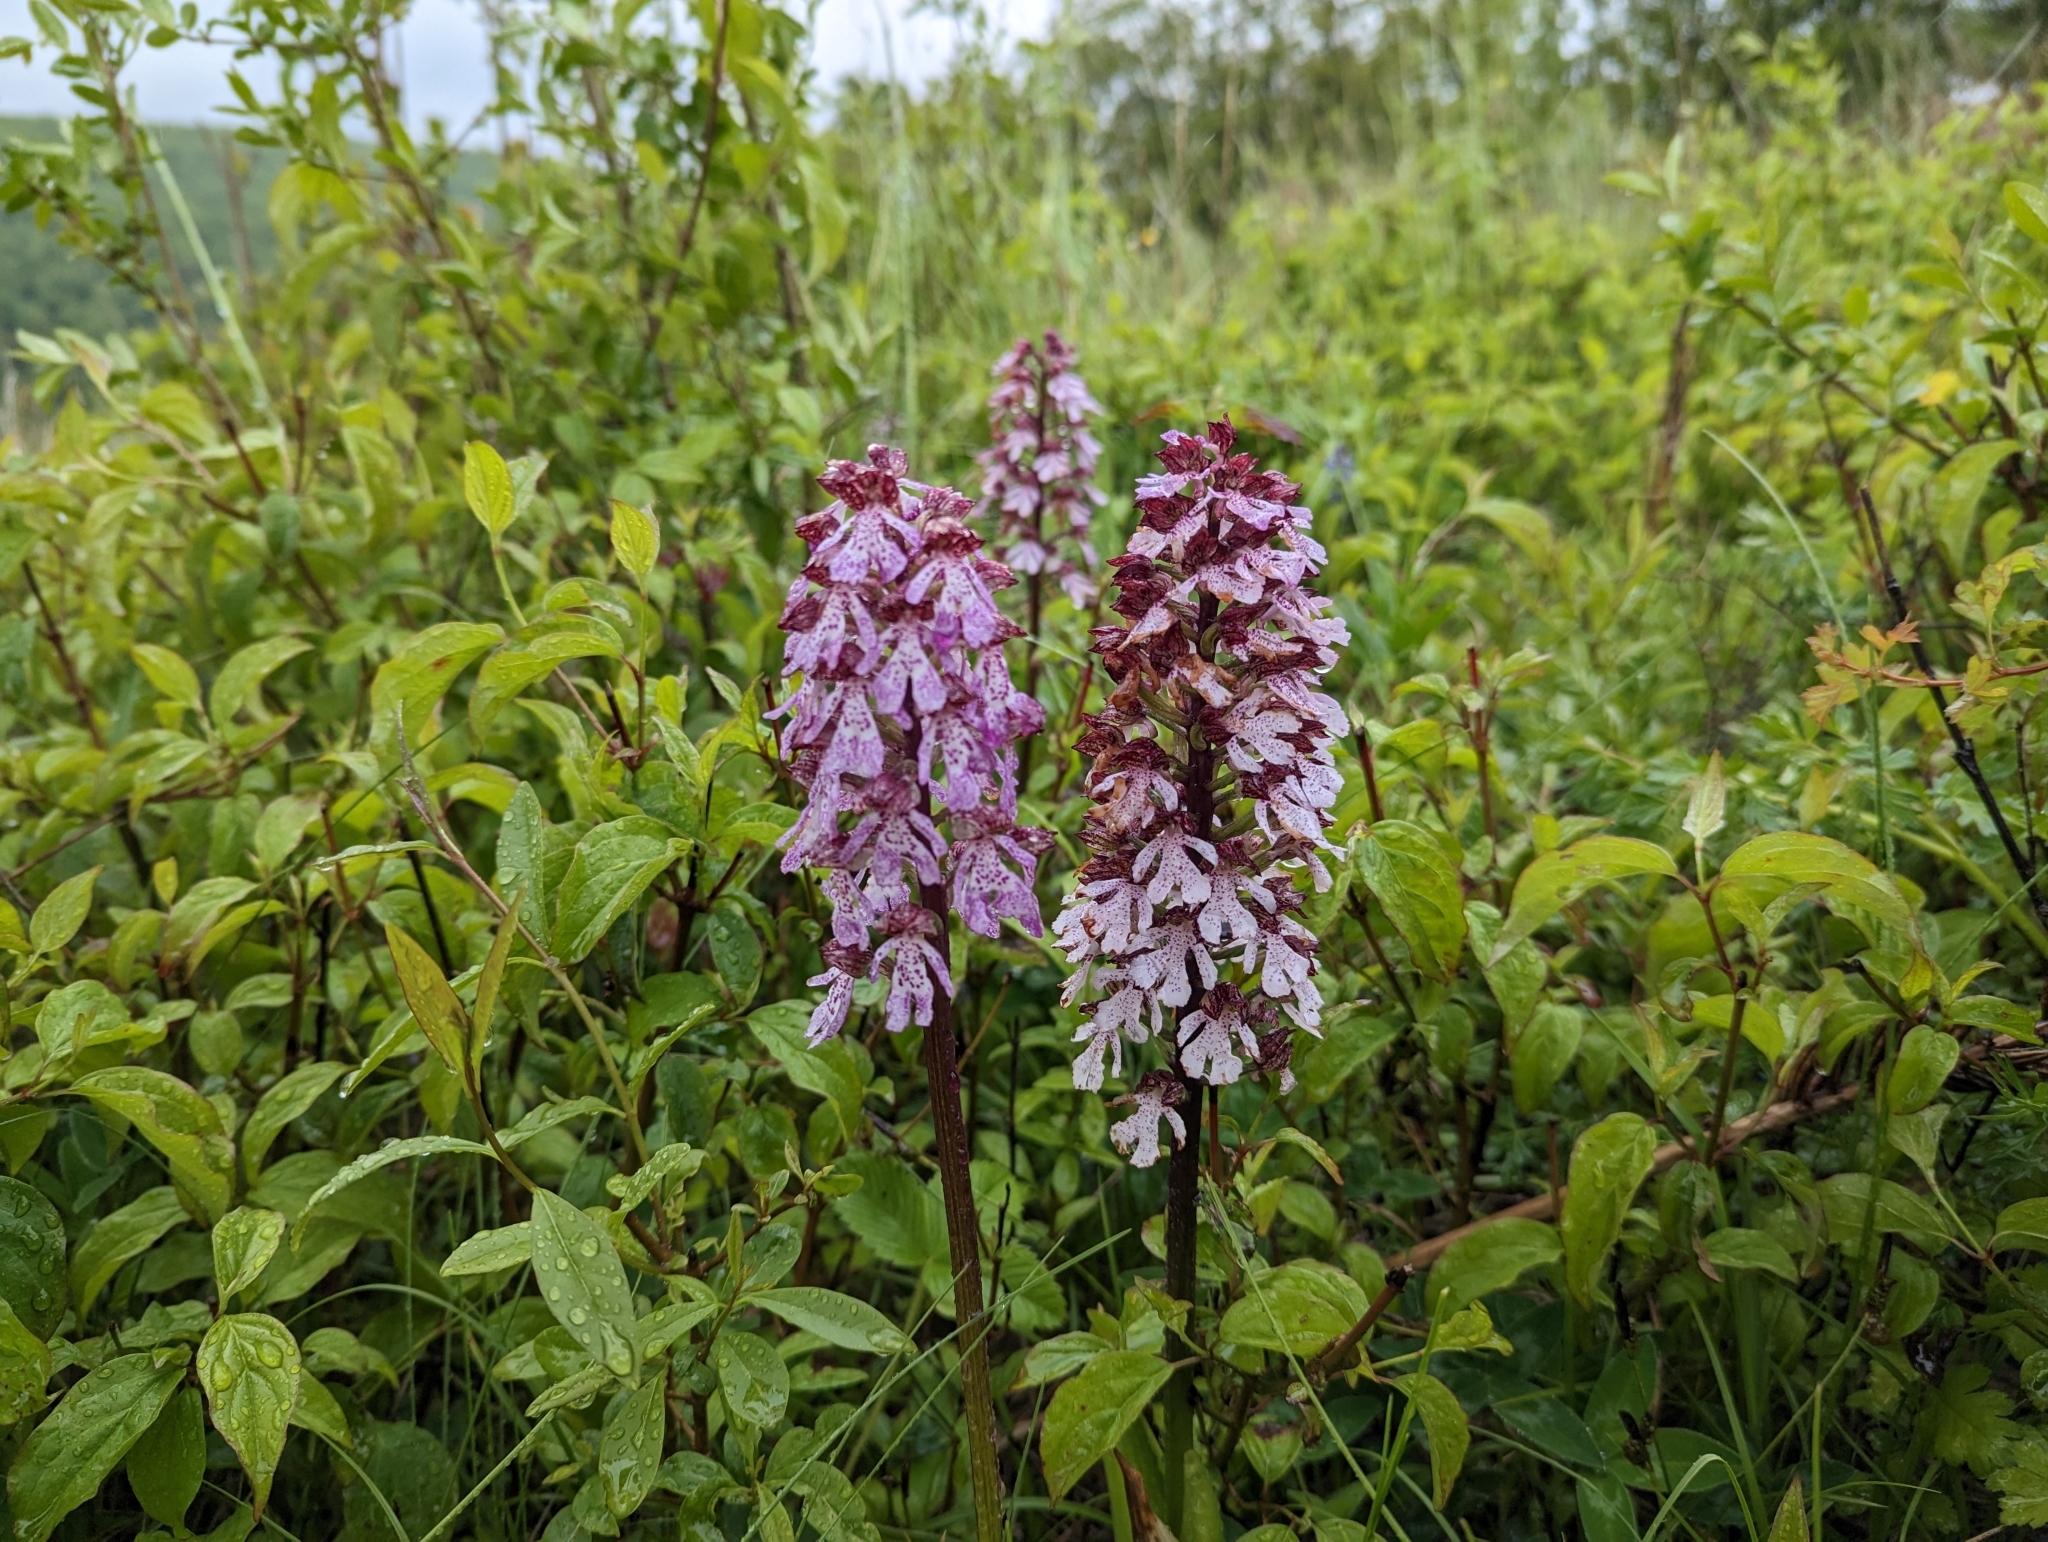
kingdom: Plantae
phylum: Tracheophyta
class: Liliopsida
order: Asparagales
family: Orchidaceae
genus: Orchis
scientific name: Orchis purpurea
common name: Lady orchid
